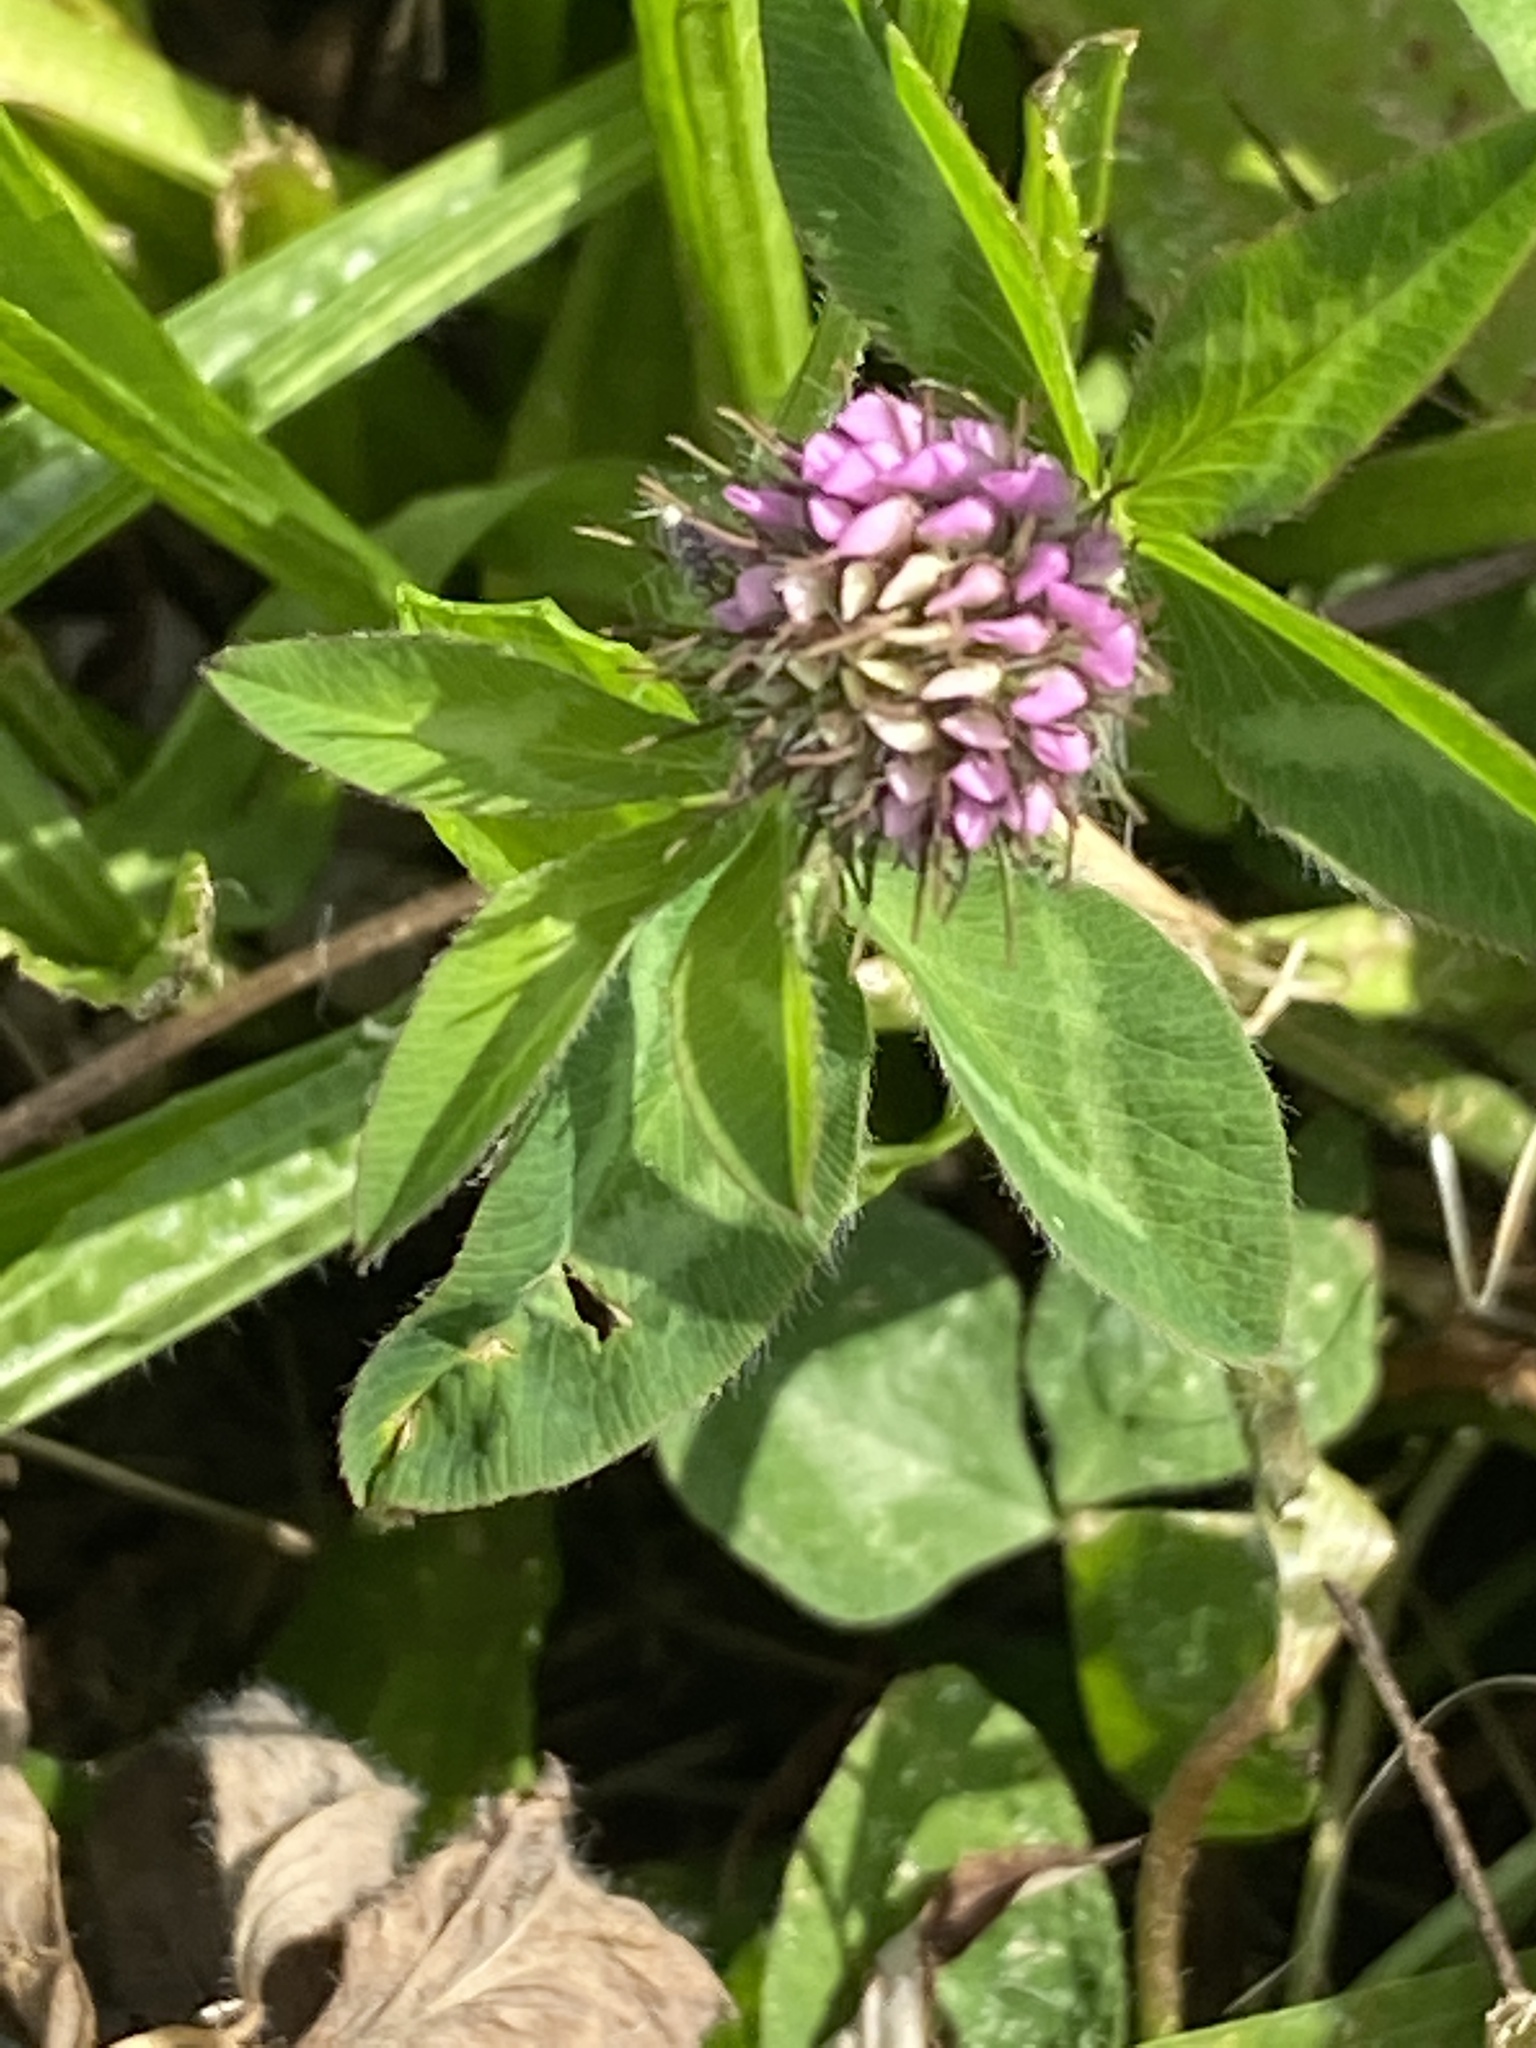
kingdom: Plantae
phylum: Tracheophyta
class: Magnoliopsida
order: Fabales
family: Fabaceae
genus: Trifolium
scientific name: Trifolium pratense
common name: Red clover
